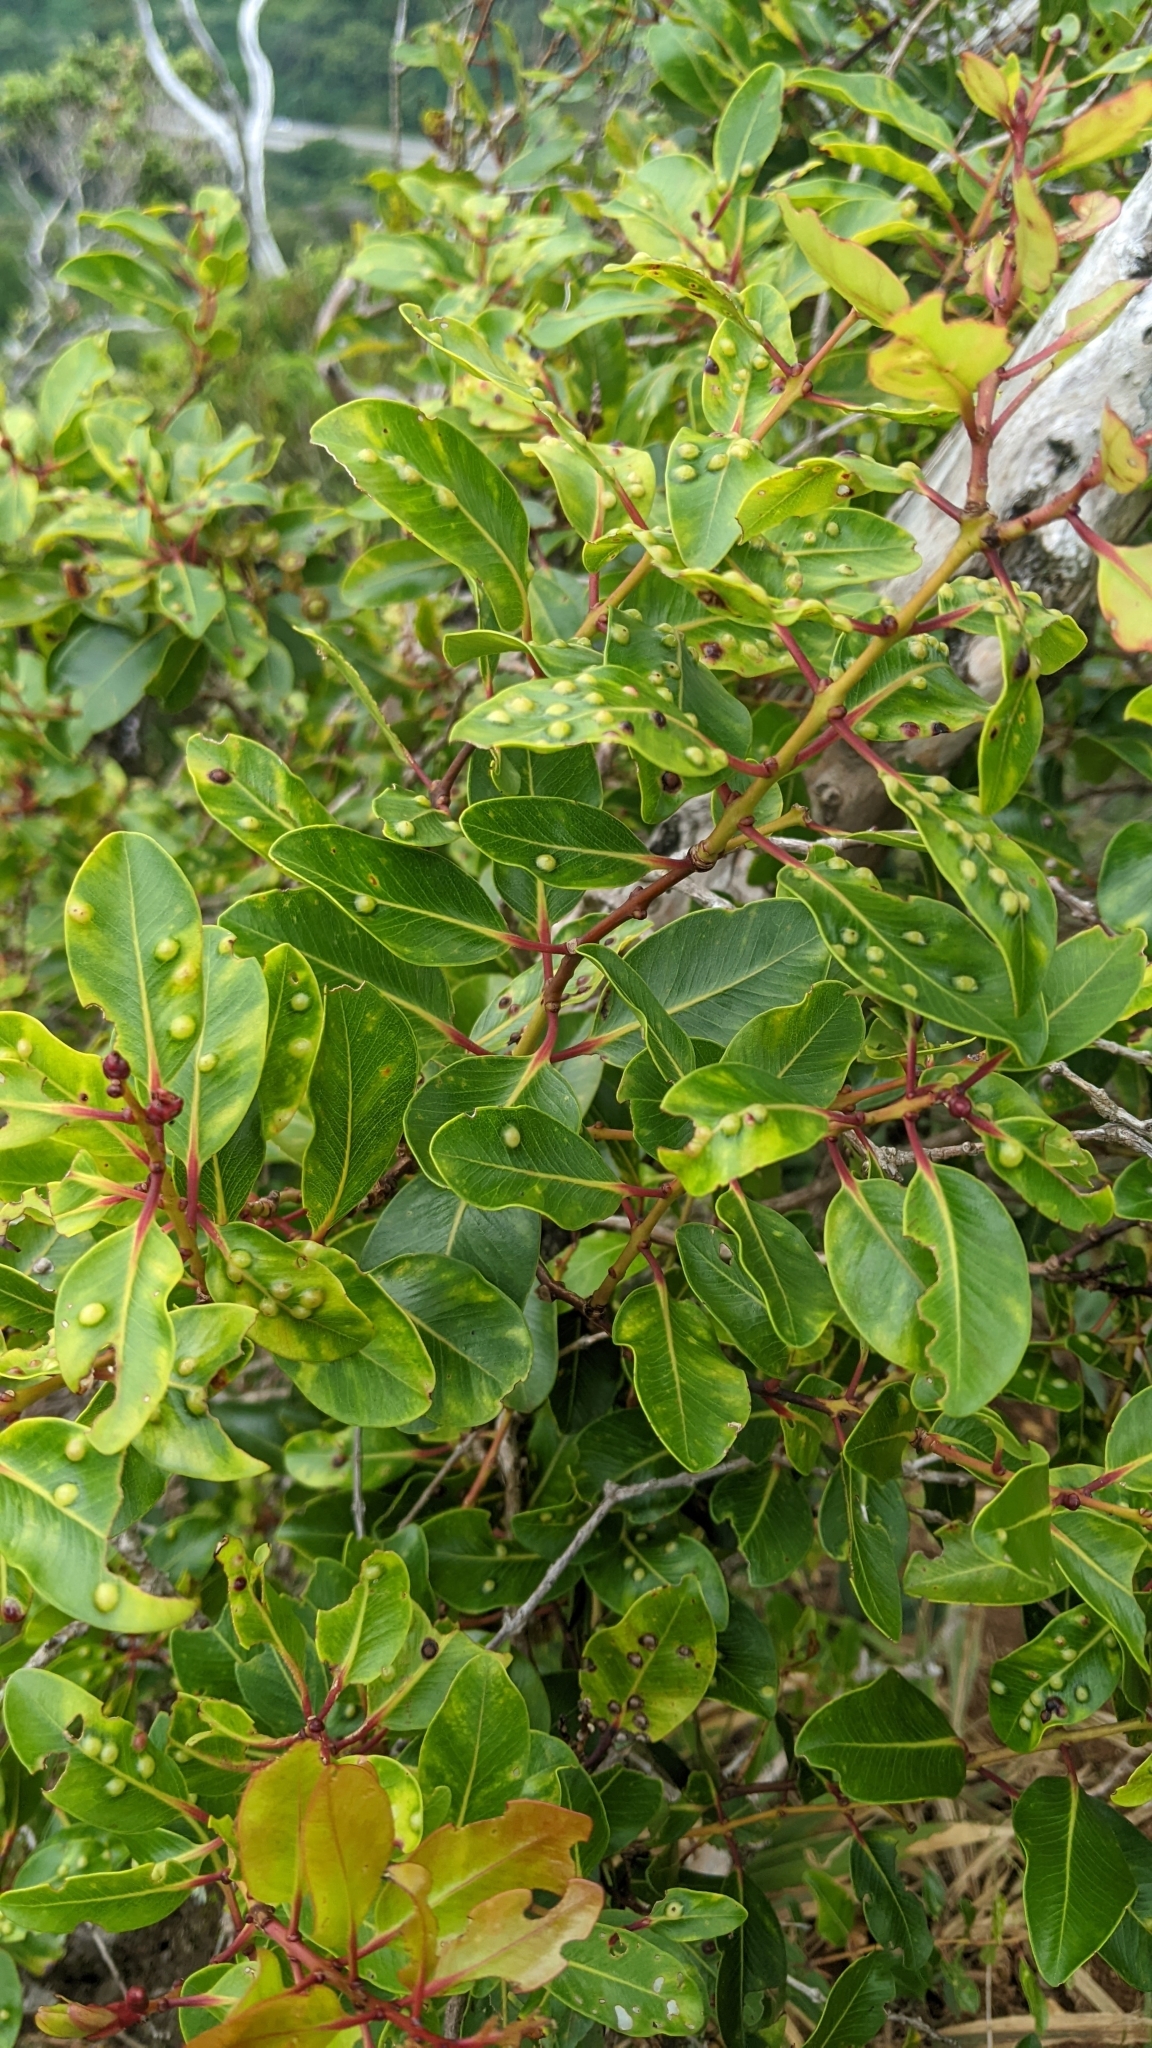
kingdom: Plantae
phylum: Tracheophyta
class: Magnoliopsida
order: Myrtales
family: Myrtaceae
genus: Metrosideros
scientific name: Metrosideros tremuloides
